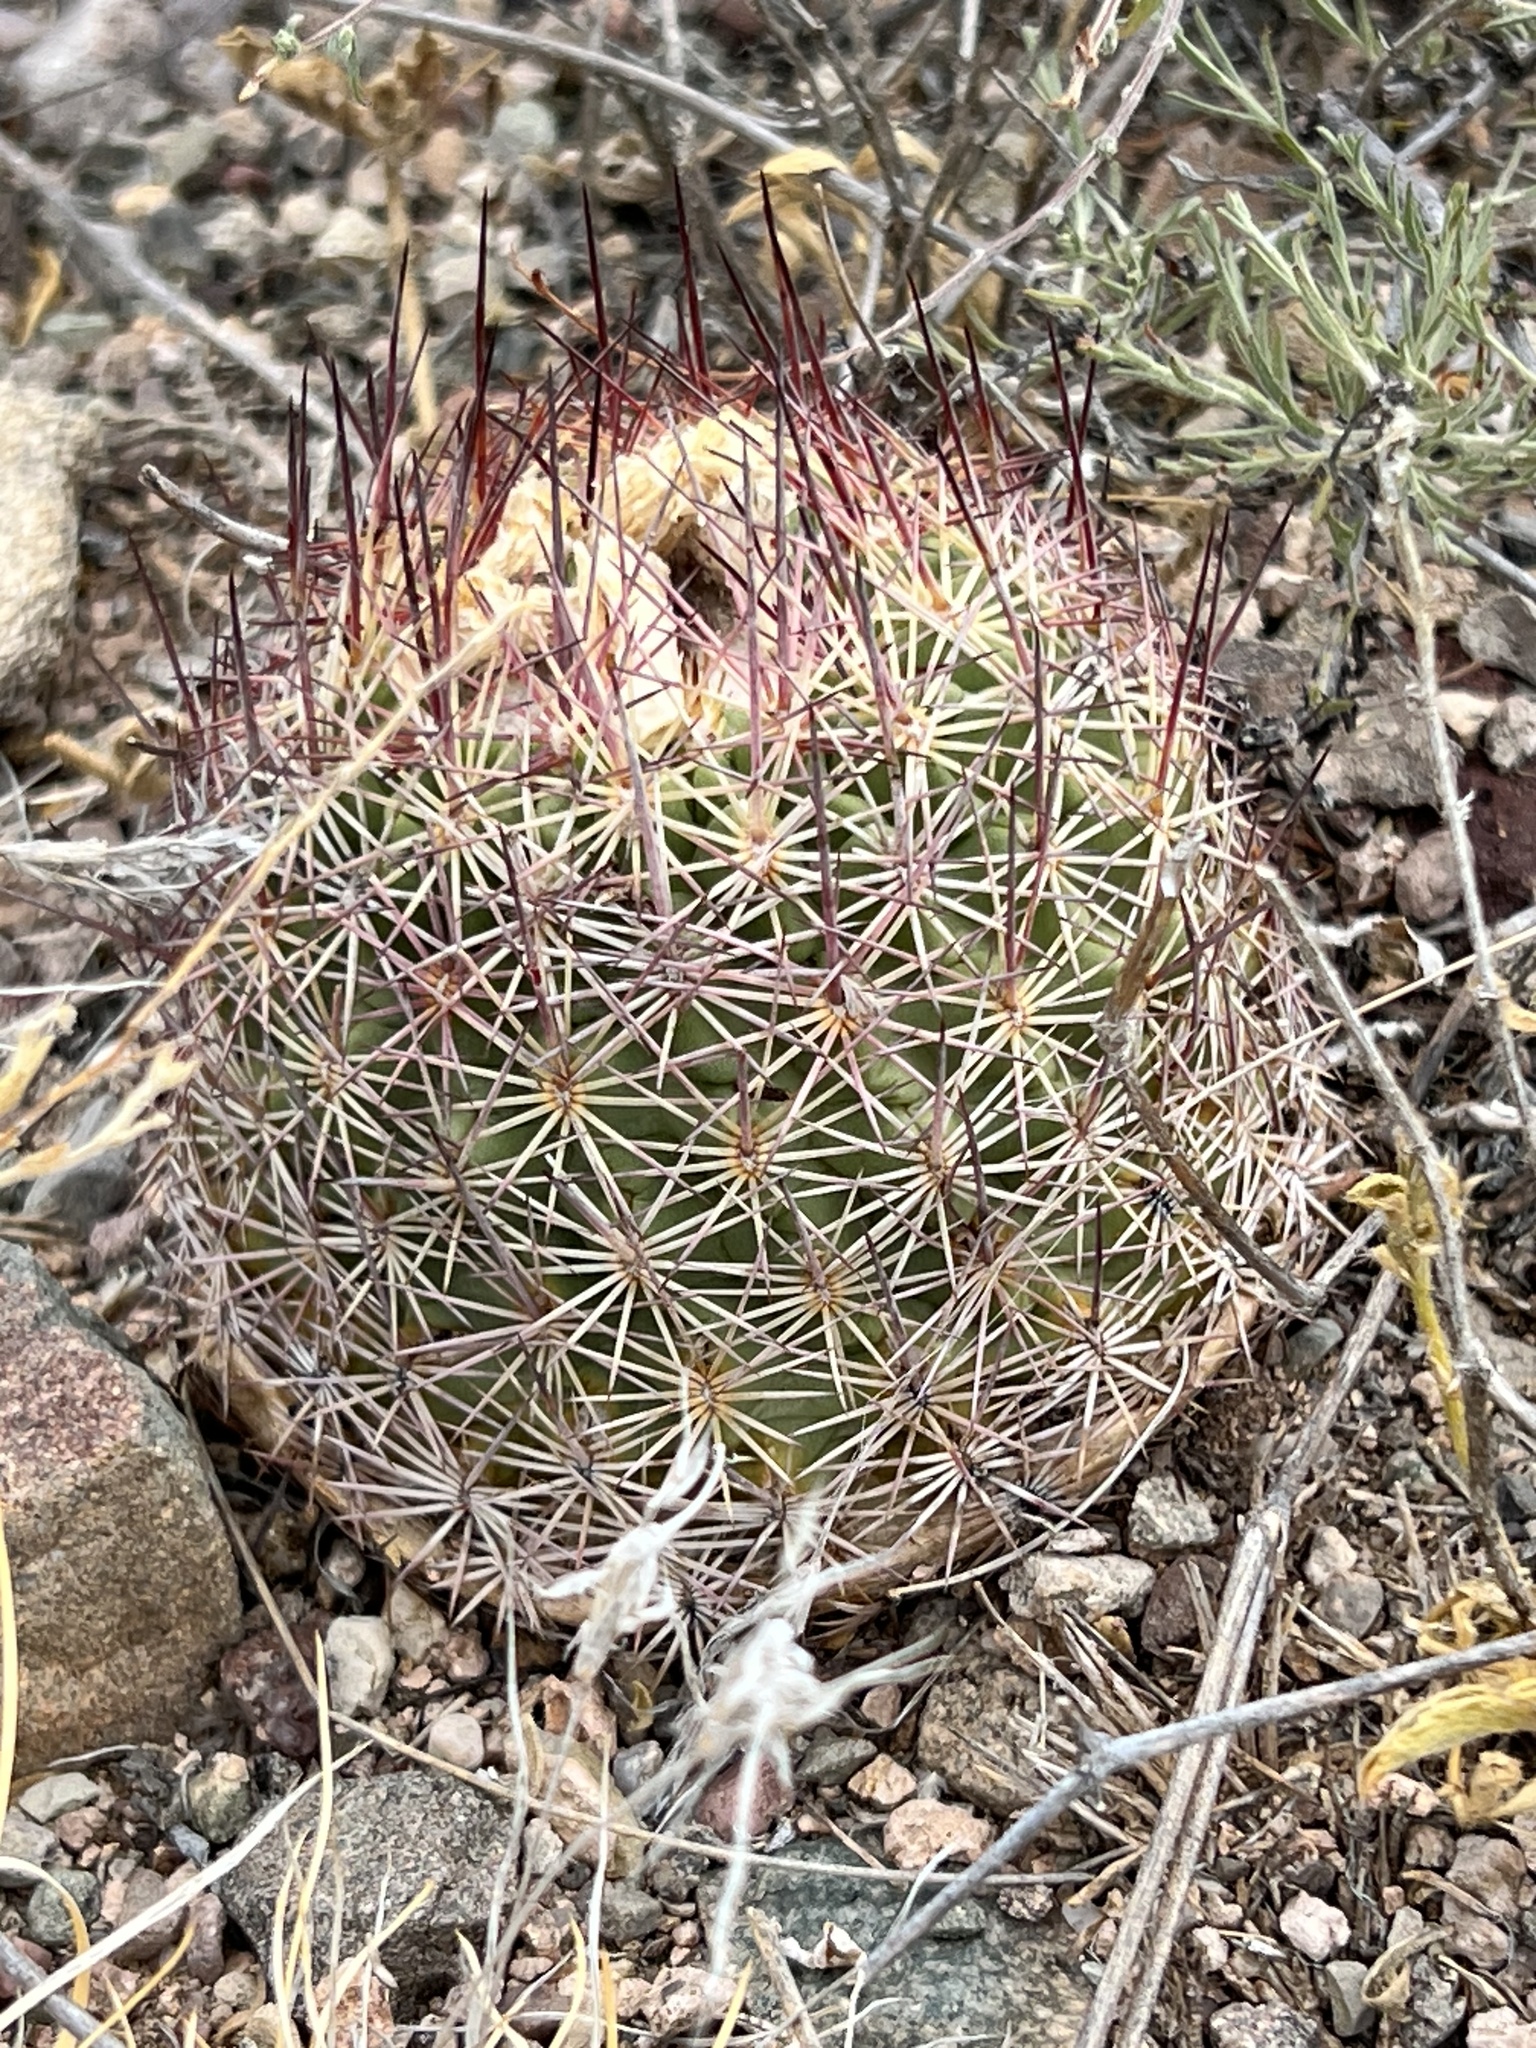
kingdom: Plantae
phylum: Tracheophyta
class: Magnoliopsida
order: Caryophyllales
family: Cactaceae
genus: Sclerocactus
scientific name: Sclerocactus johnsonii
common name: Eight-spine fishhook cactus
